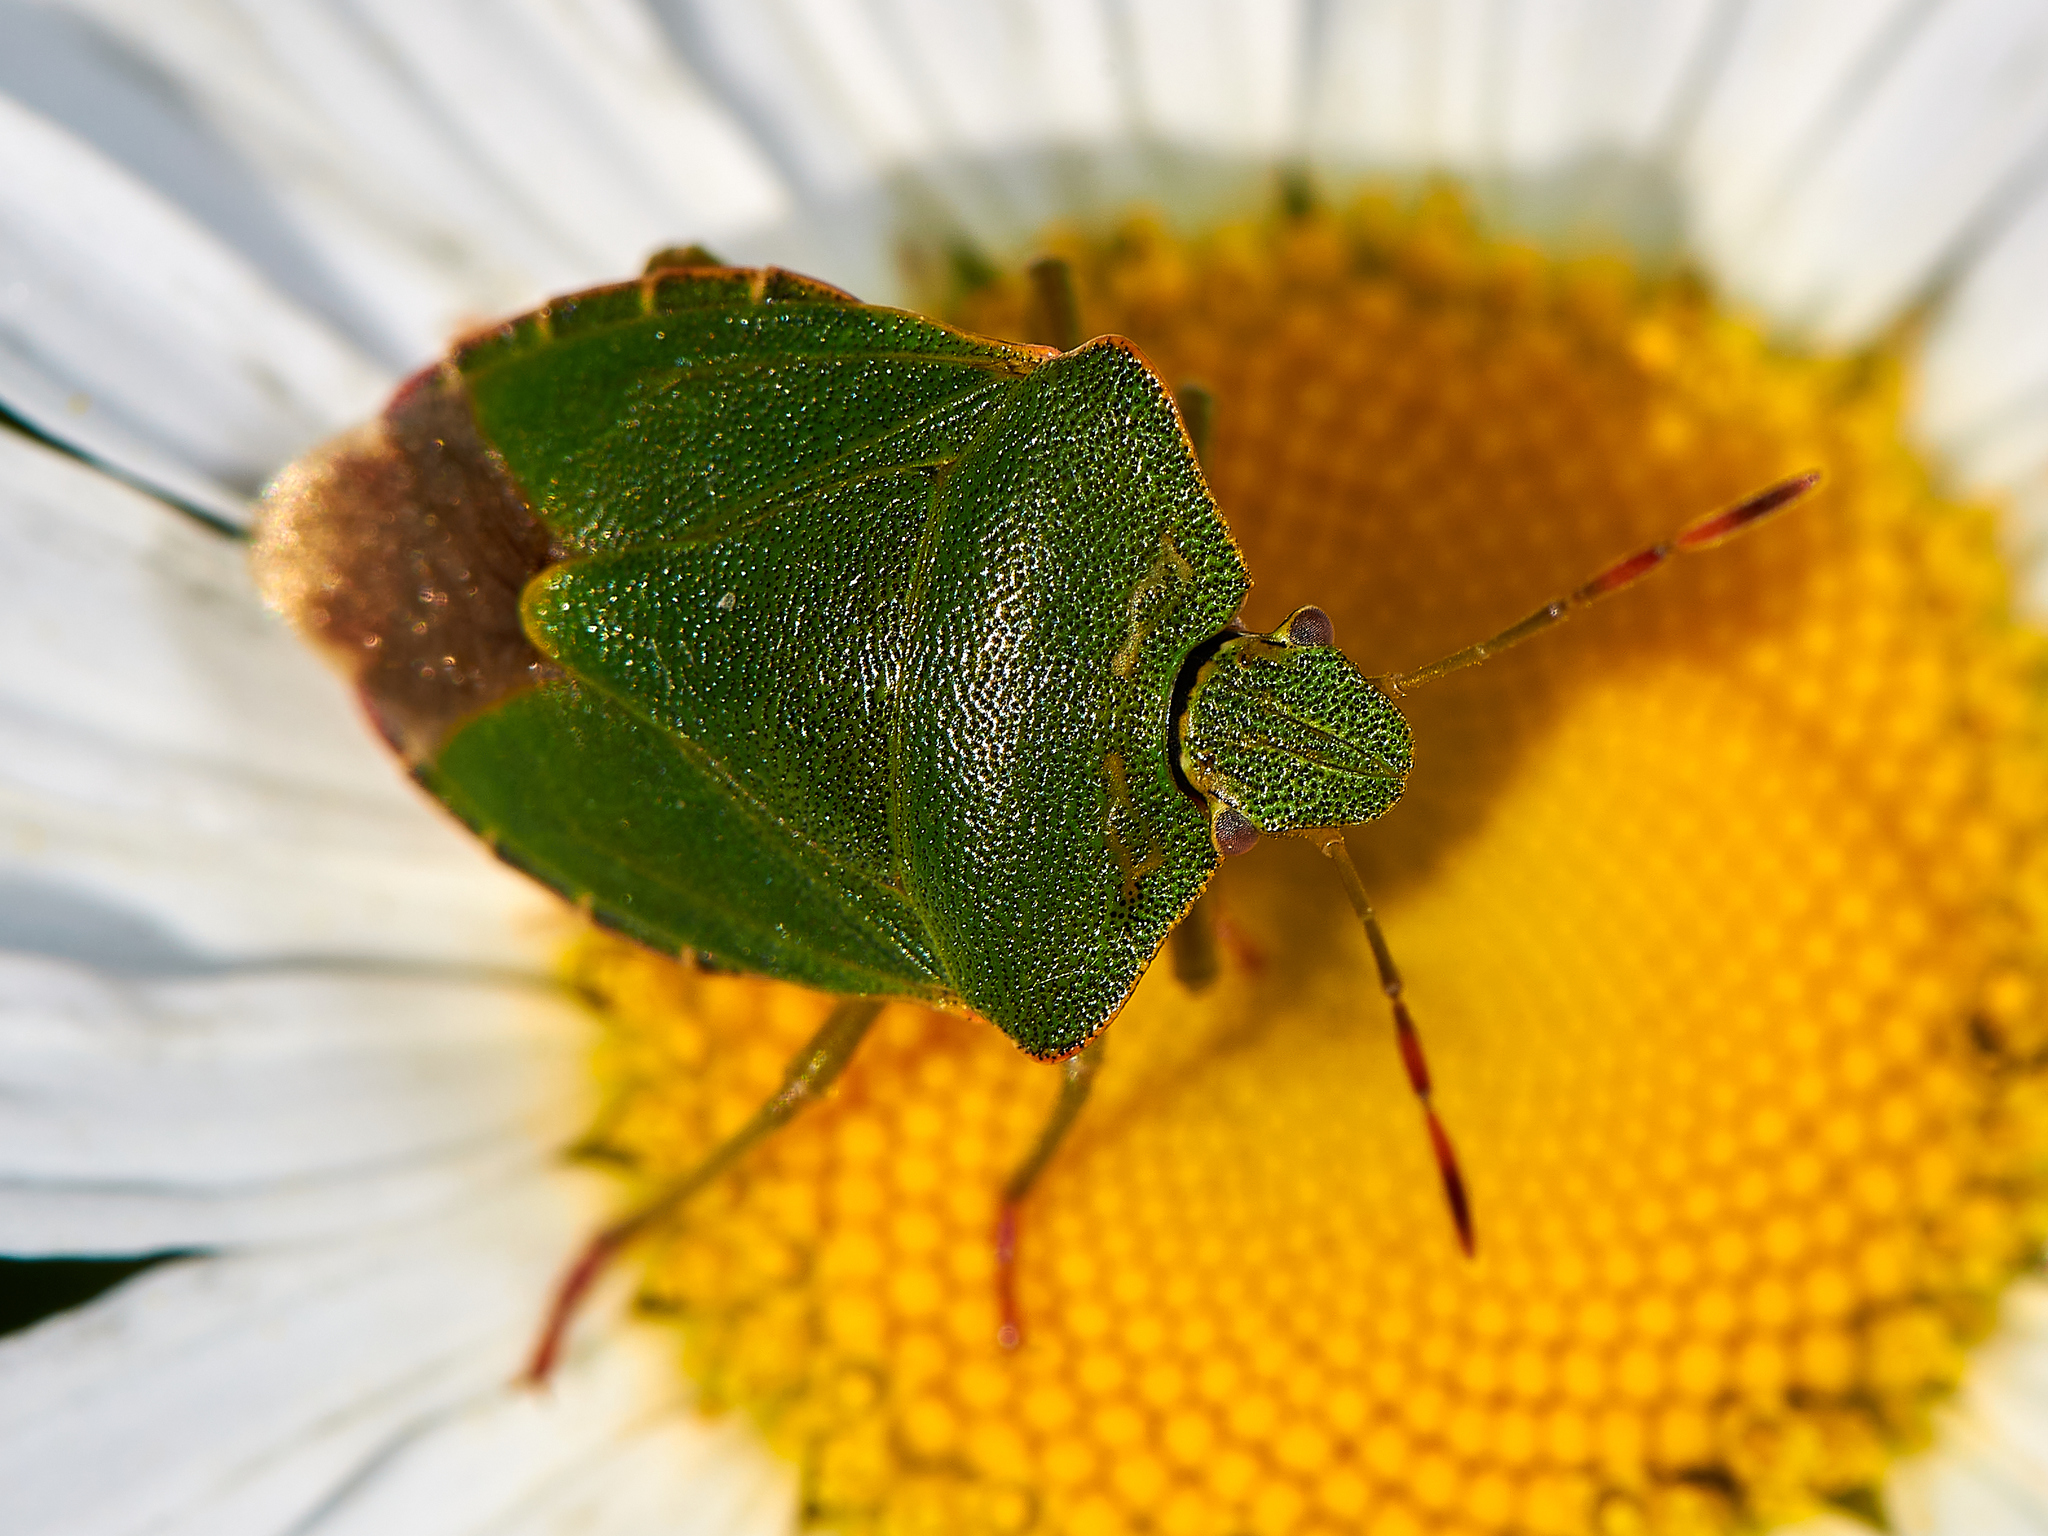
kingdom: Animalia
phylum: Arthropoda
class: Insecta
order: Hemiptera
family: Pentatomidae
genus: Palomena
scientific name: Palomena prasina
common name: Green shieldbug
